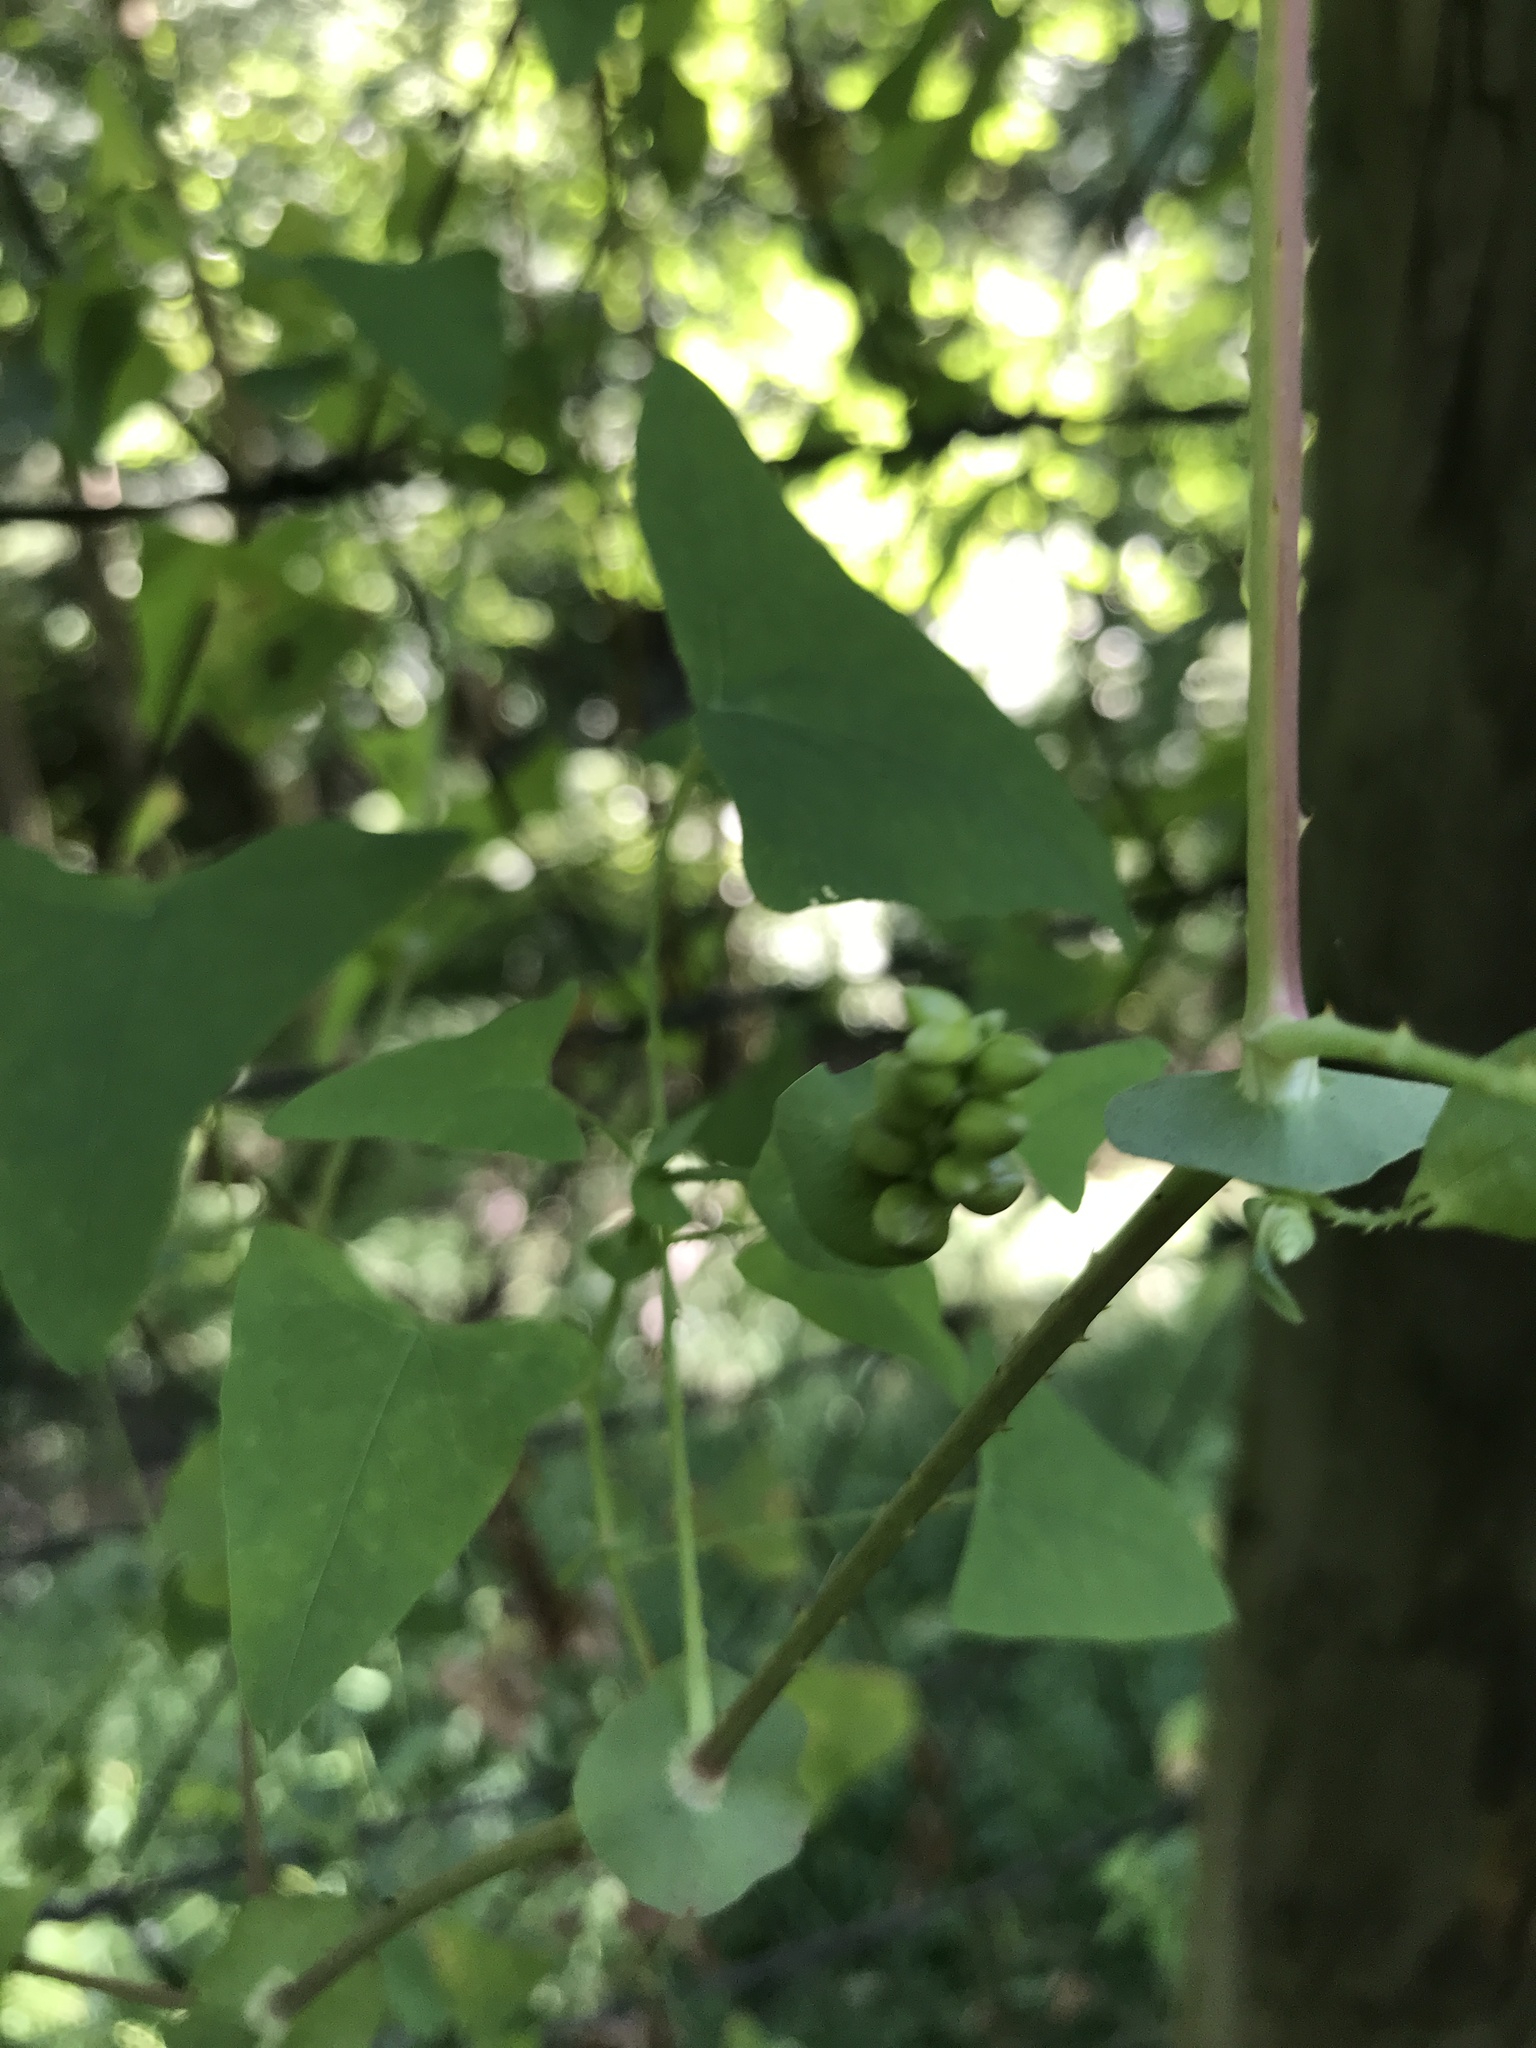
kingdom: Plantae
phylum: Tracheophyta
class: Magnoliopsida
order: Caryophyllales
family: Polygonaceae
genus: Persicaria
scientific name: Persicaria perfoliata
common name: Asiatic tearthumb
